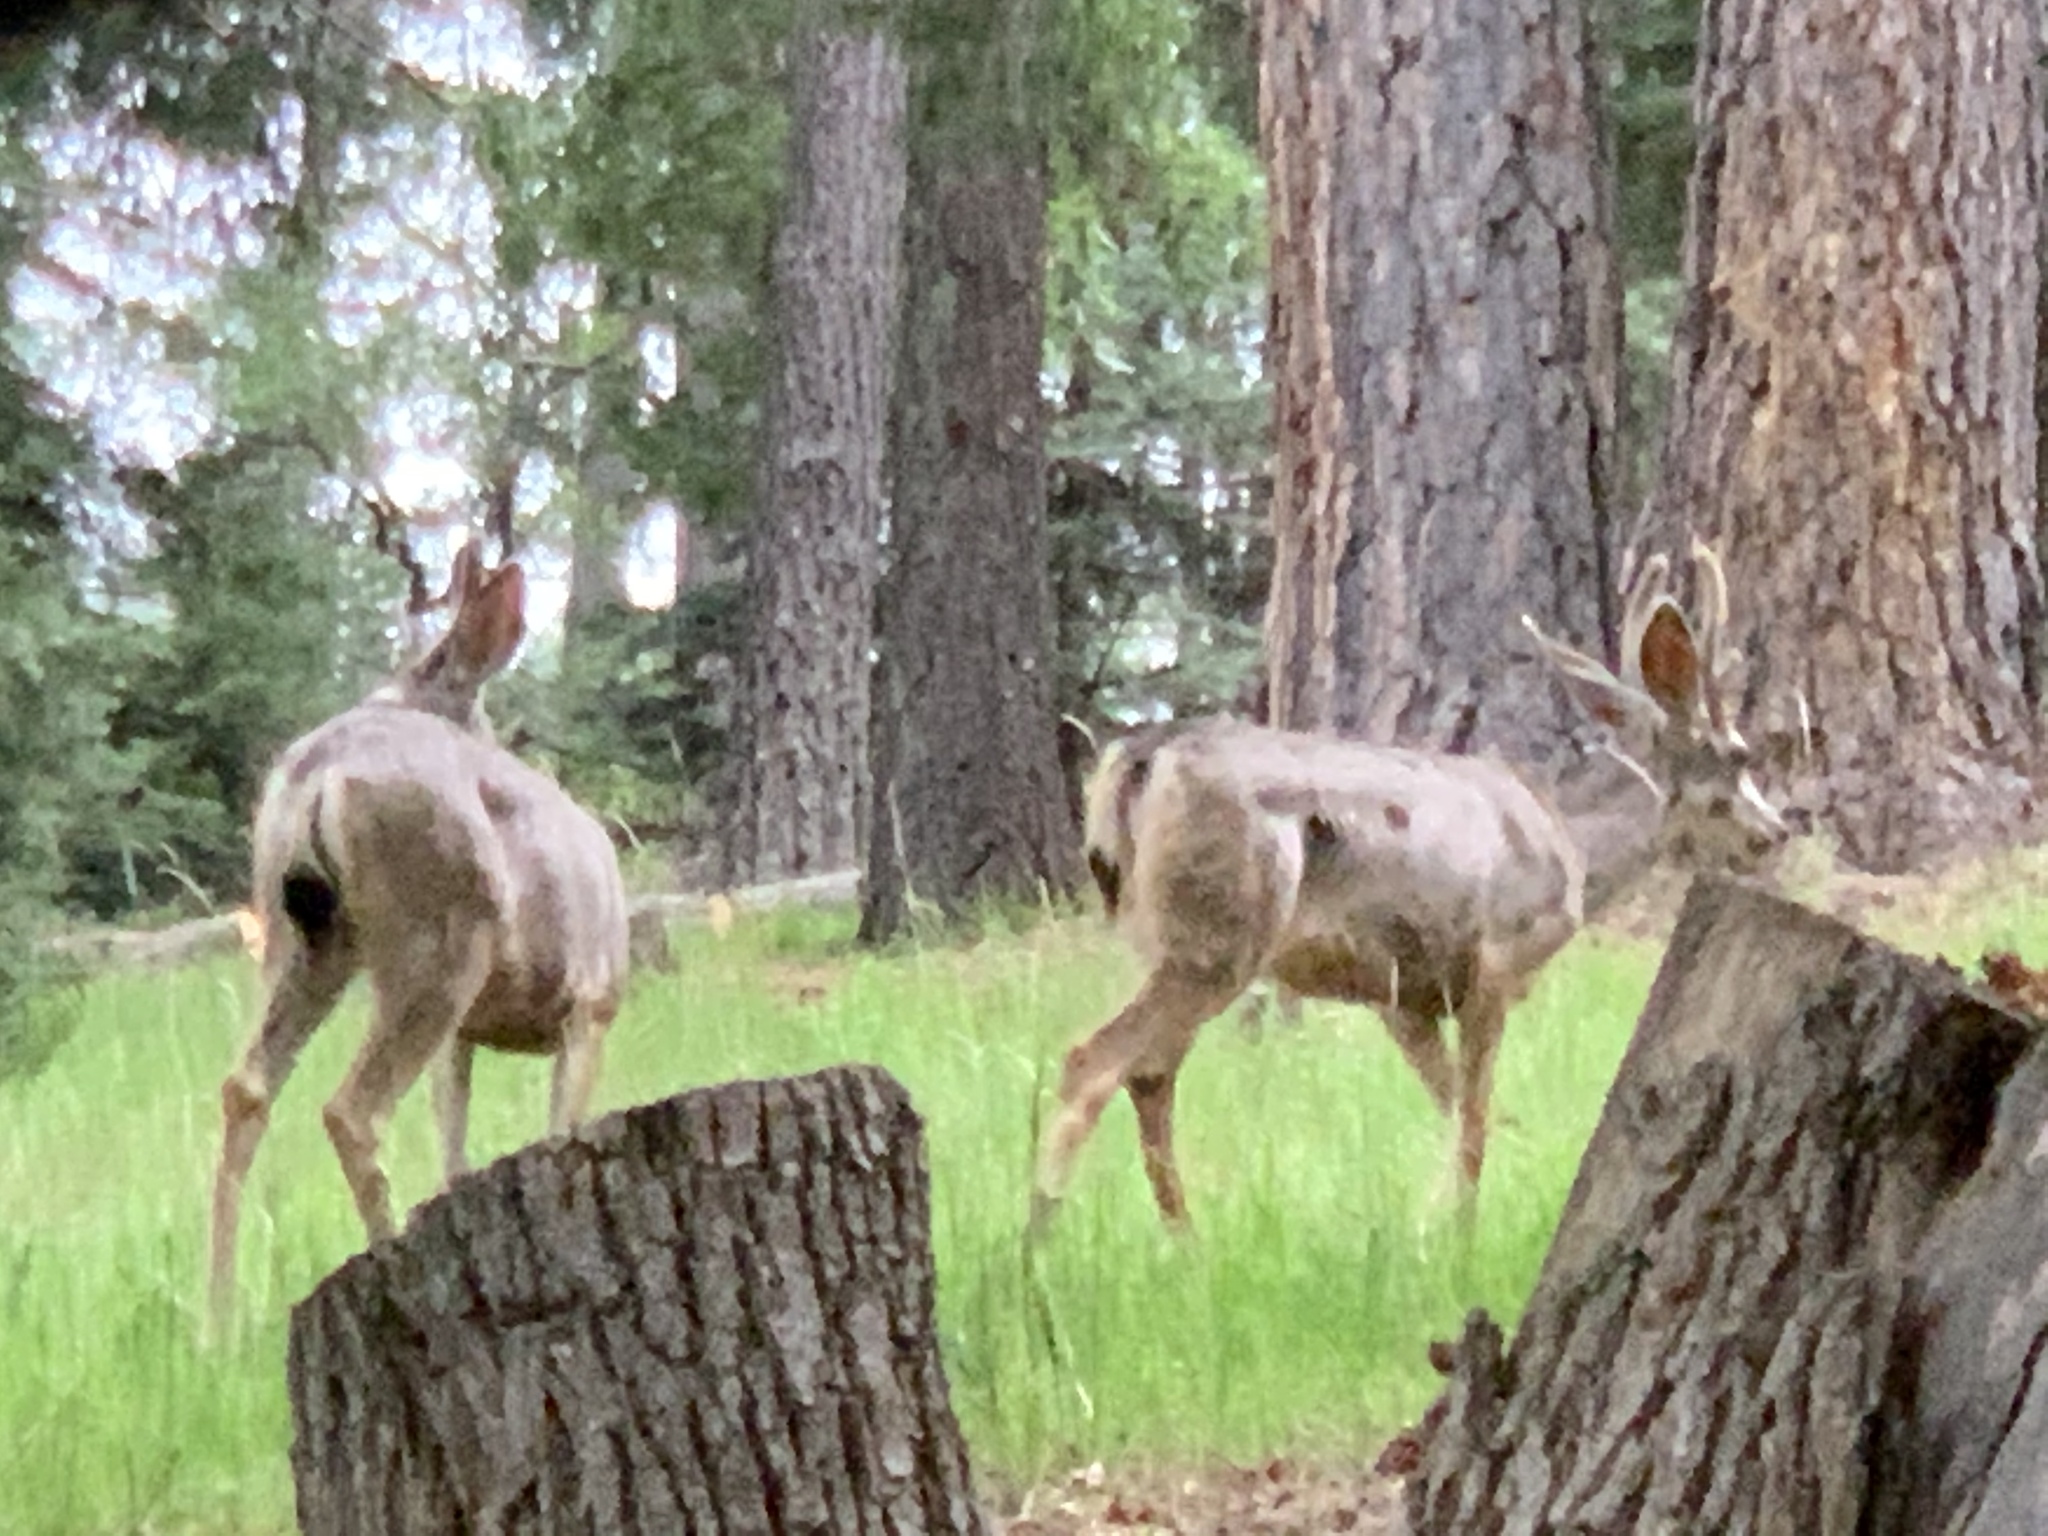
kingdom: Animalia
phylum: Chordata
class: Mammalia
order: Artiodactyla
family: Cervidae
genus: Odocoileus
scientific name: Odocoileus hemionus
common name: Mule deer
